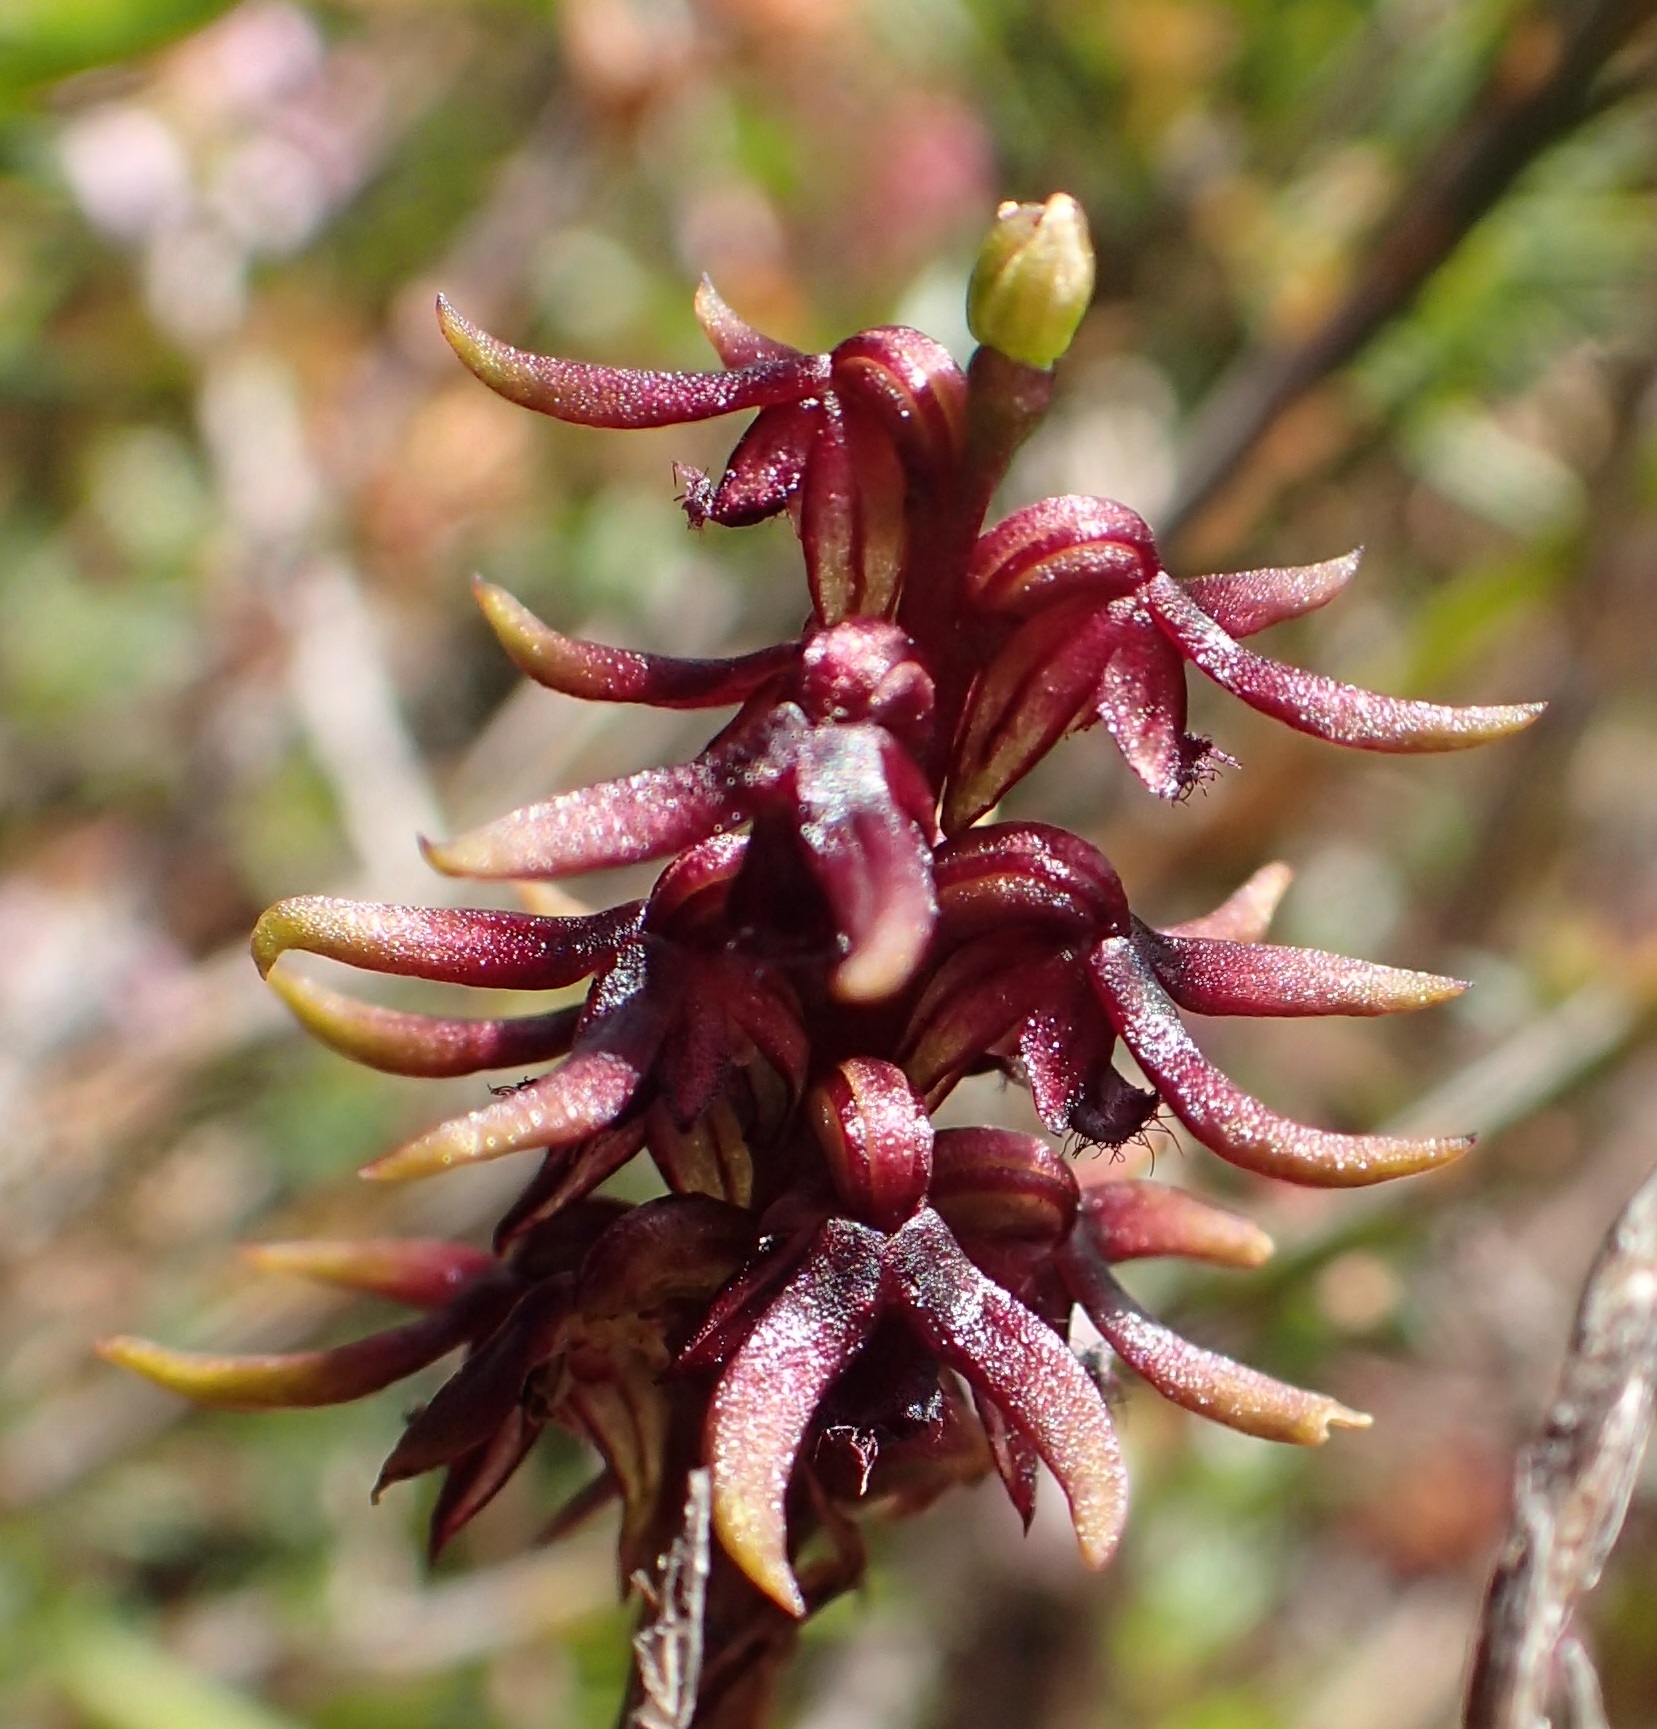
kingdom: Plantae
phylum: Tracheophyta
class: Liliopsida
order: Asparagales
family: Orchidaceae
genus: Genoplesium
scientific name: Genoplesium archeri
